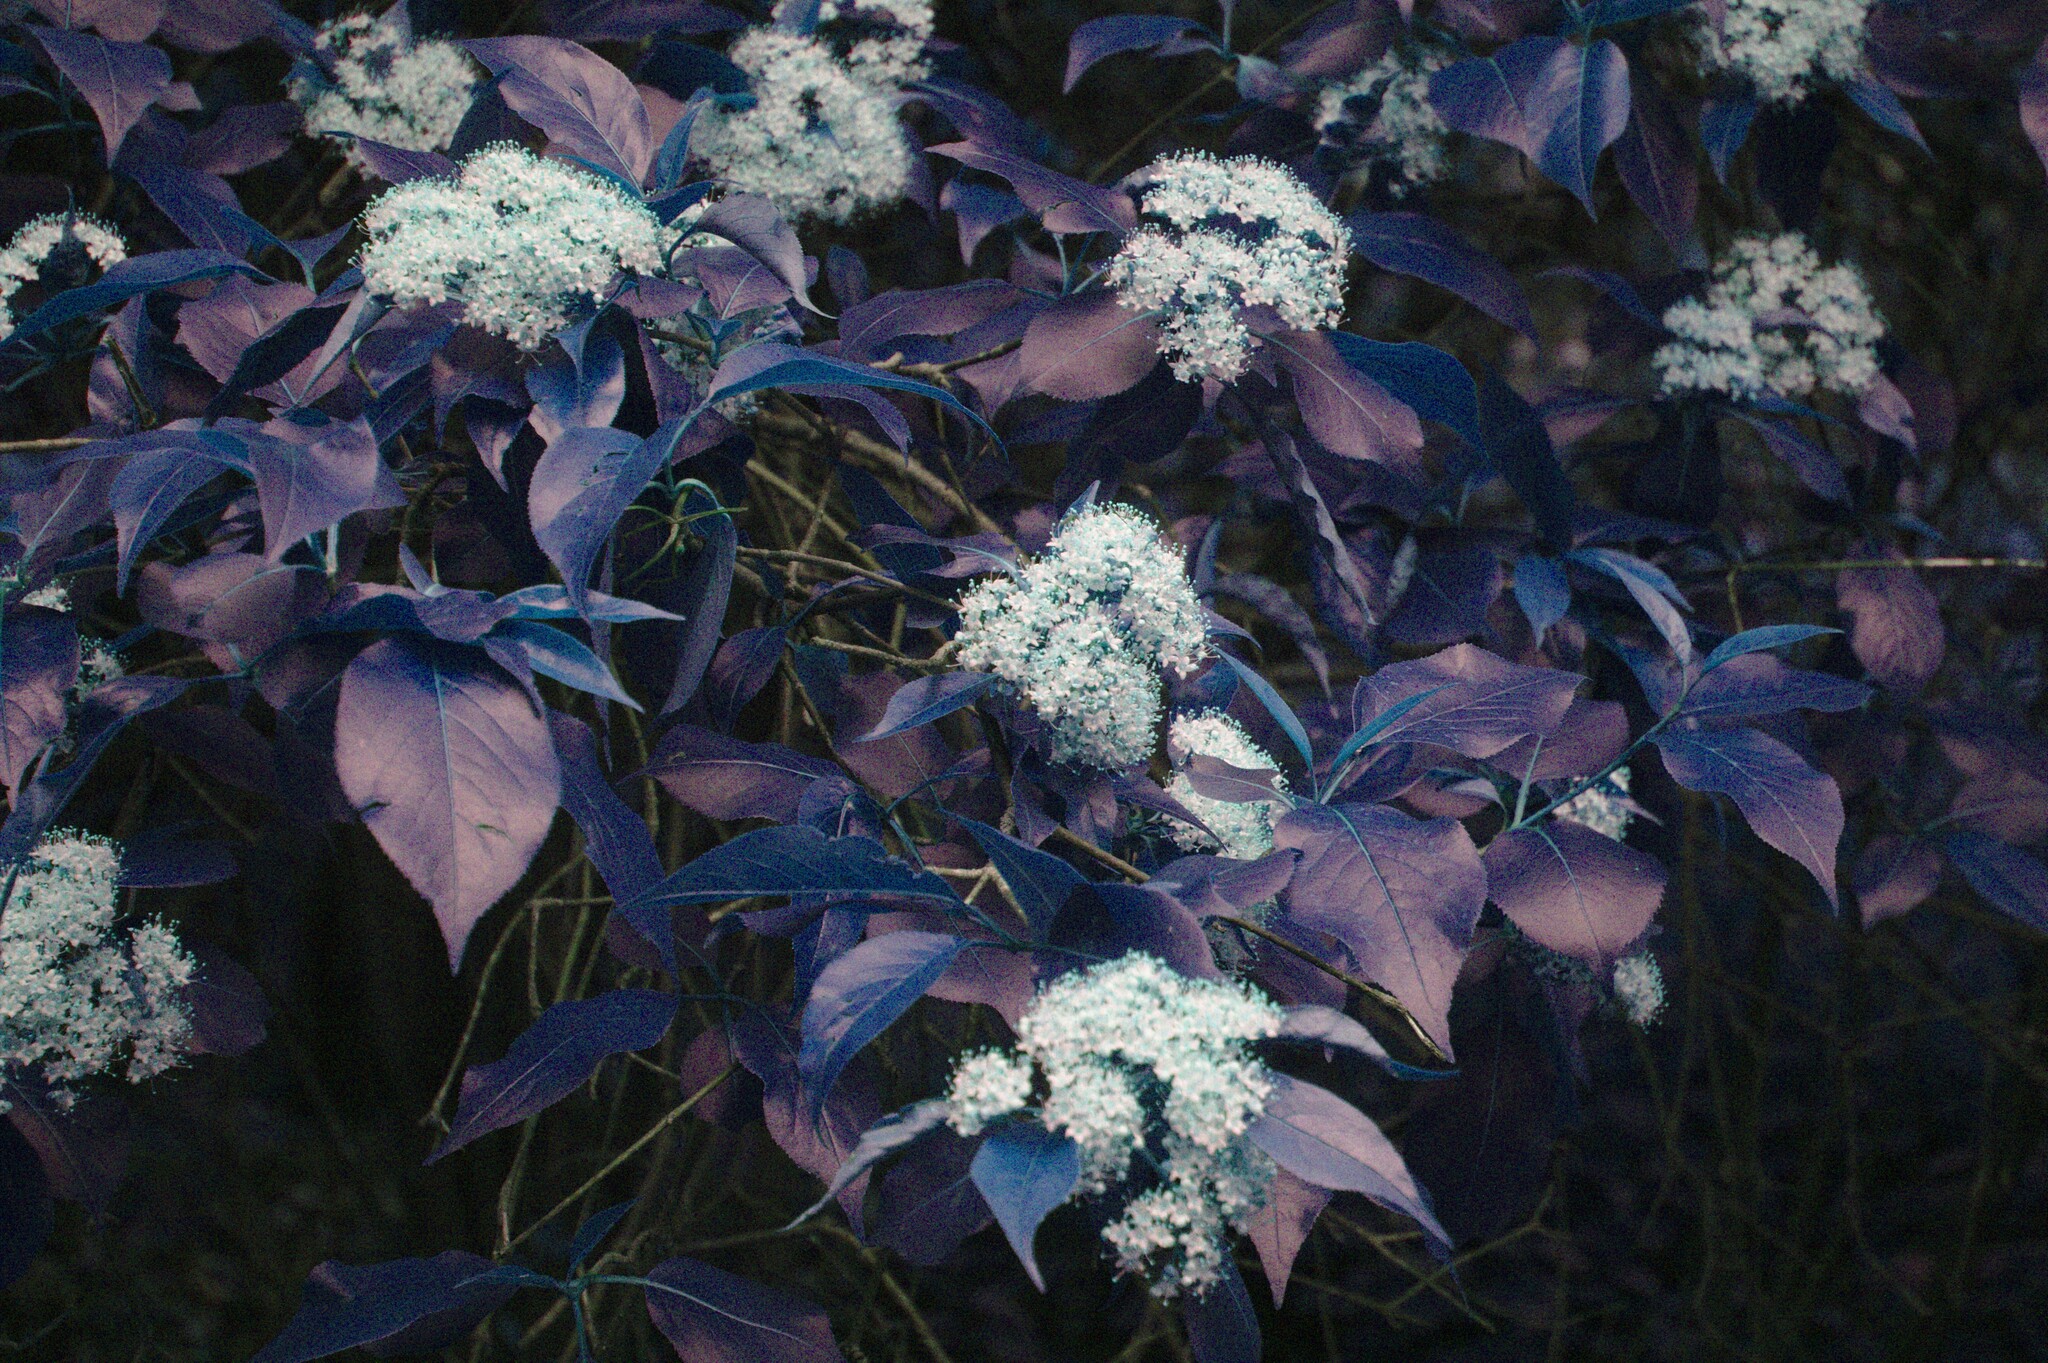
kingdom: Plantae
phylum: Tracheophyta
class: Magnoliopsida
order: Dipsacales
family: Viburnaceae
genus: Viburnum
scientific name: Viburnum lentago
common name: Black haw
